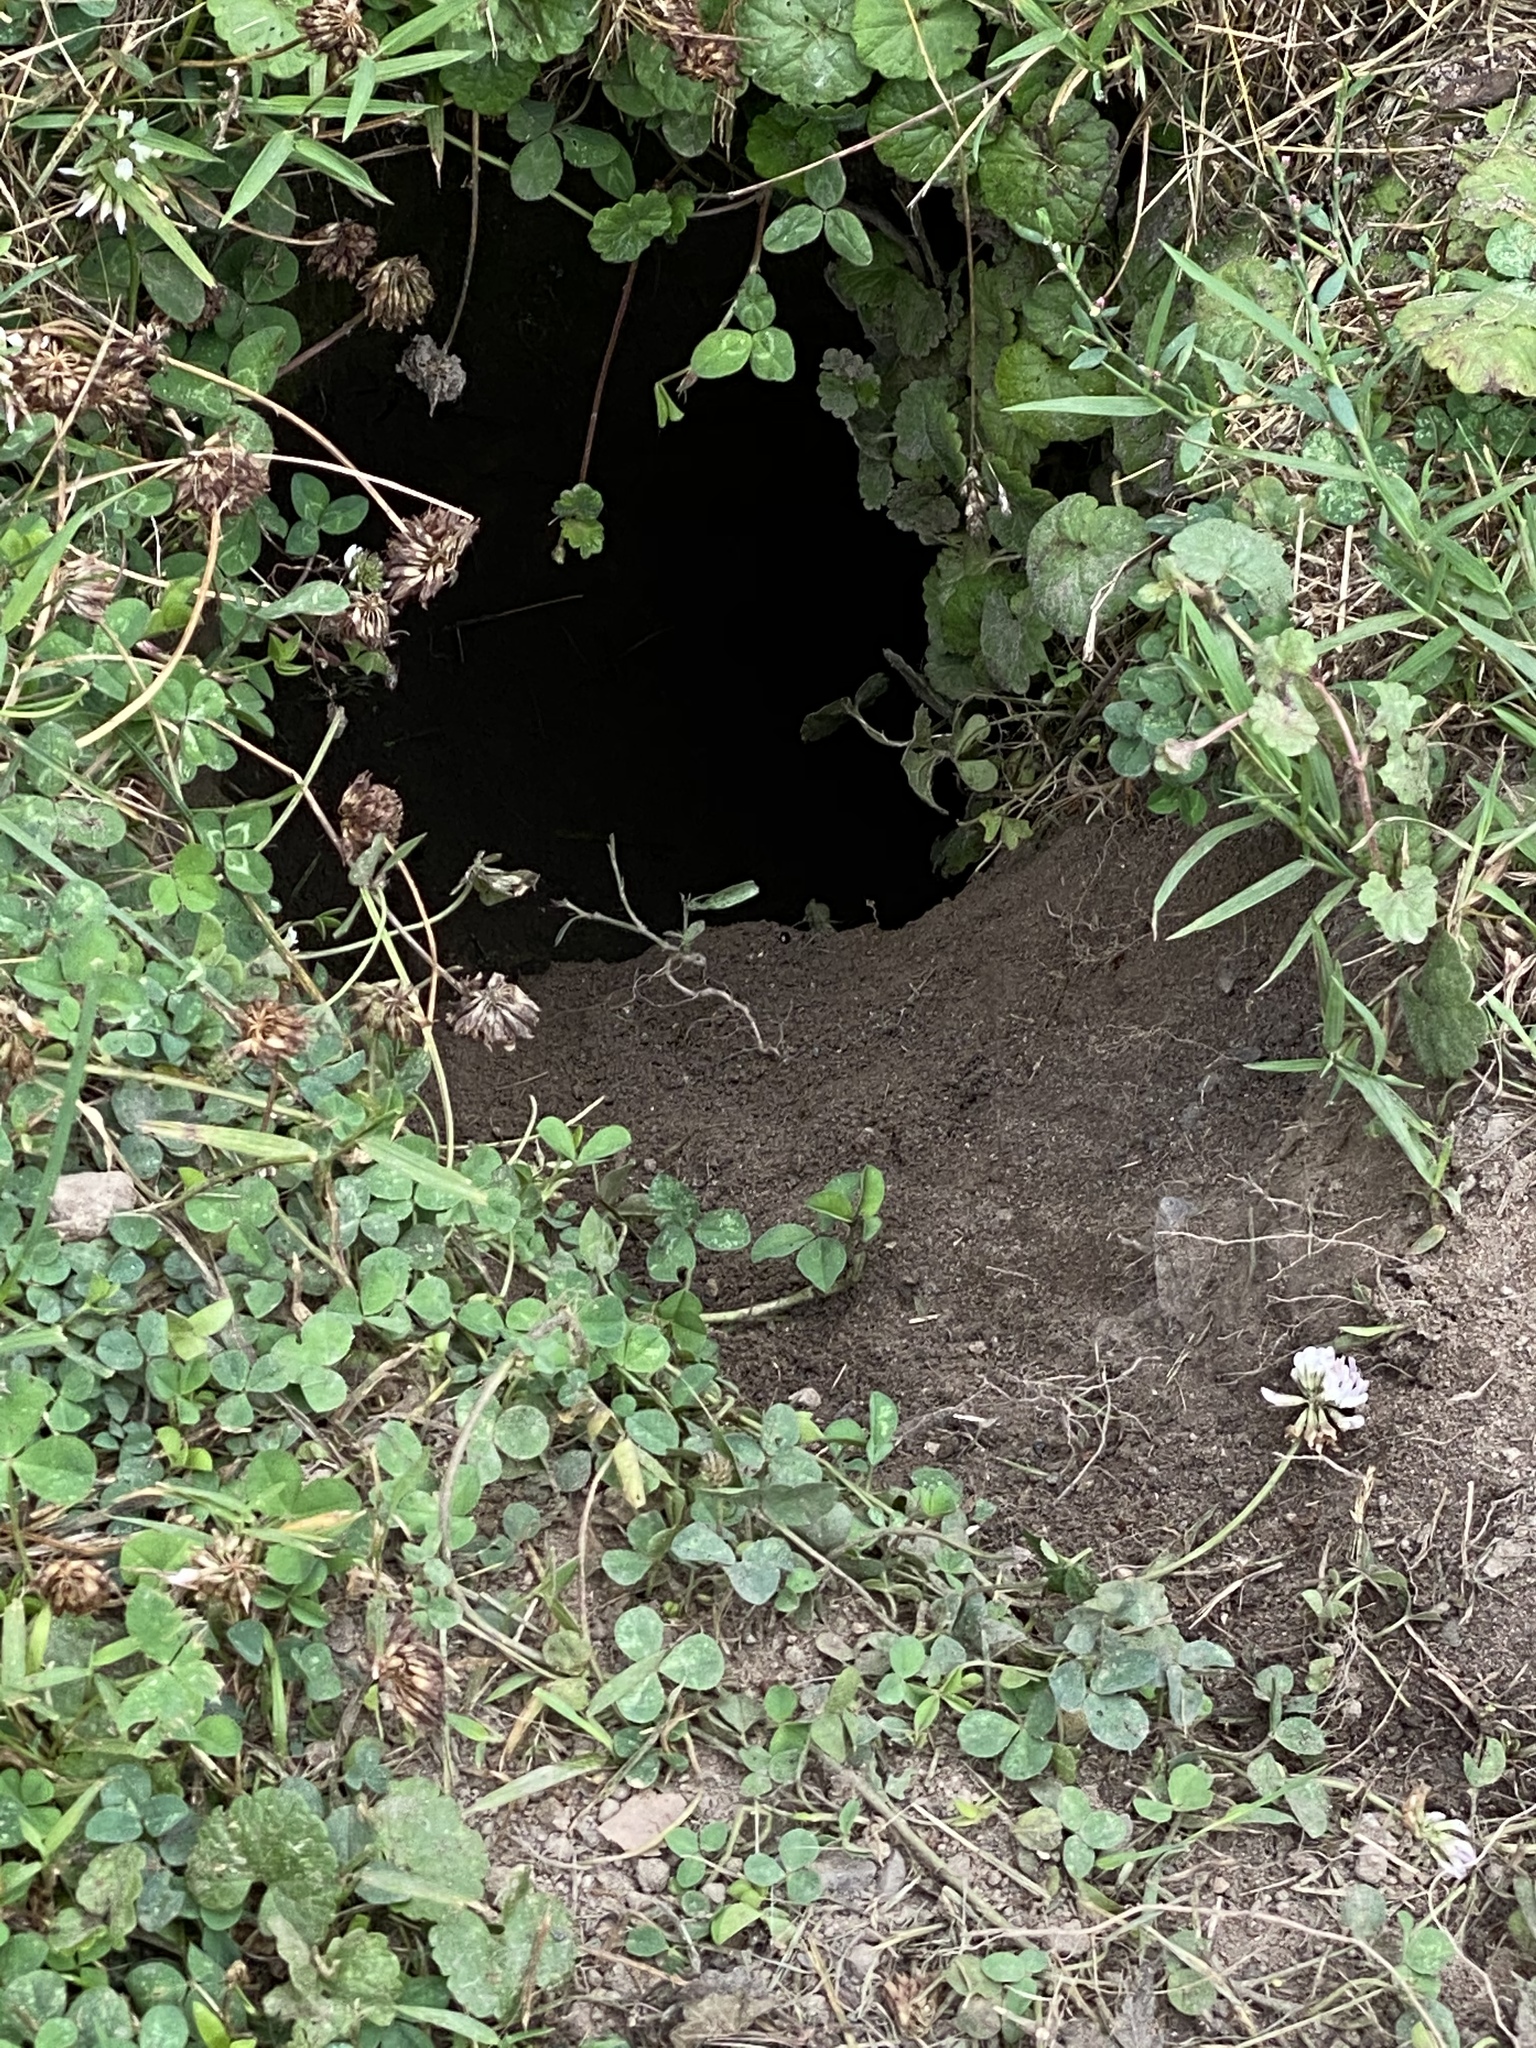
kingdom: Animalia
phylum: Chordata
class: Mammalia
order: Rodentia
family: Sciuridae
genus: Marmota
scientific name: Marmota monax
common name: Groundhog
